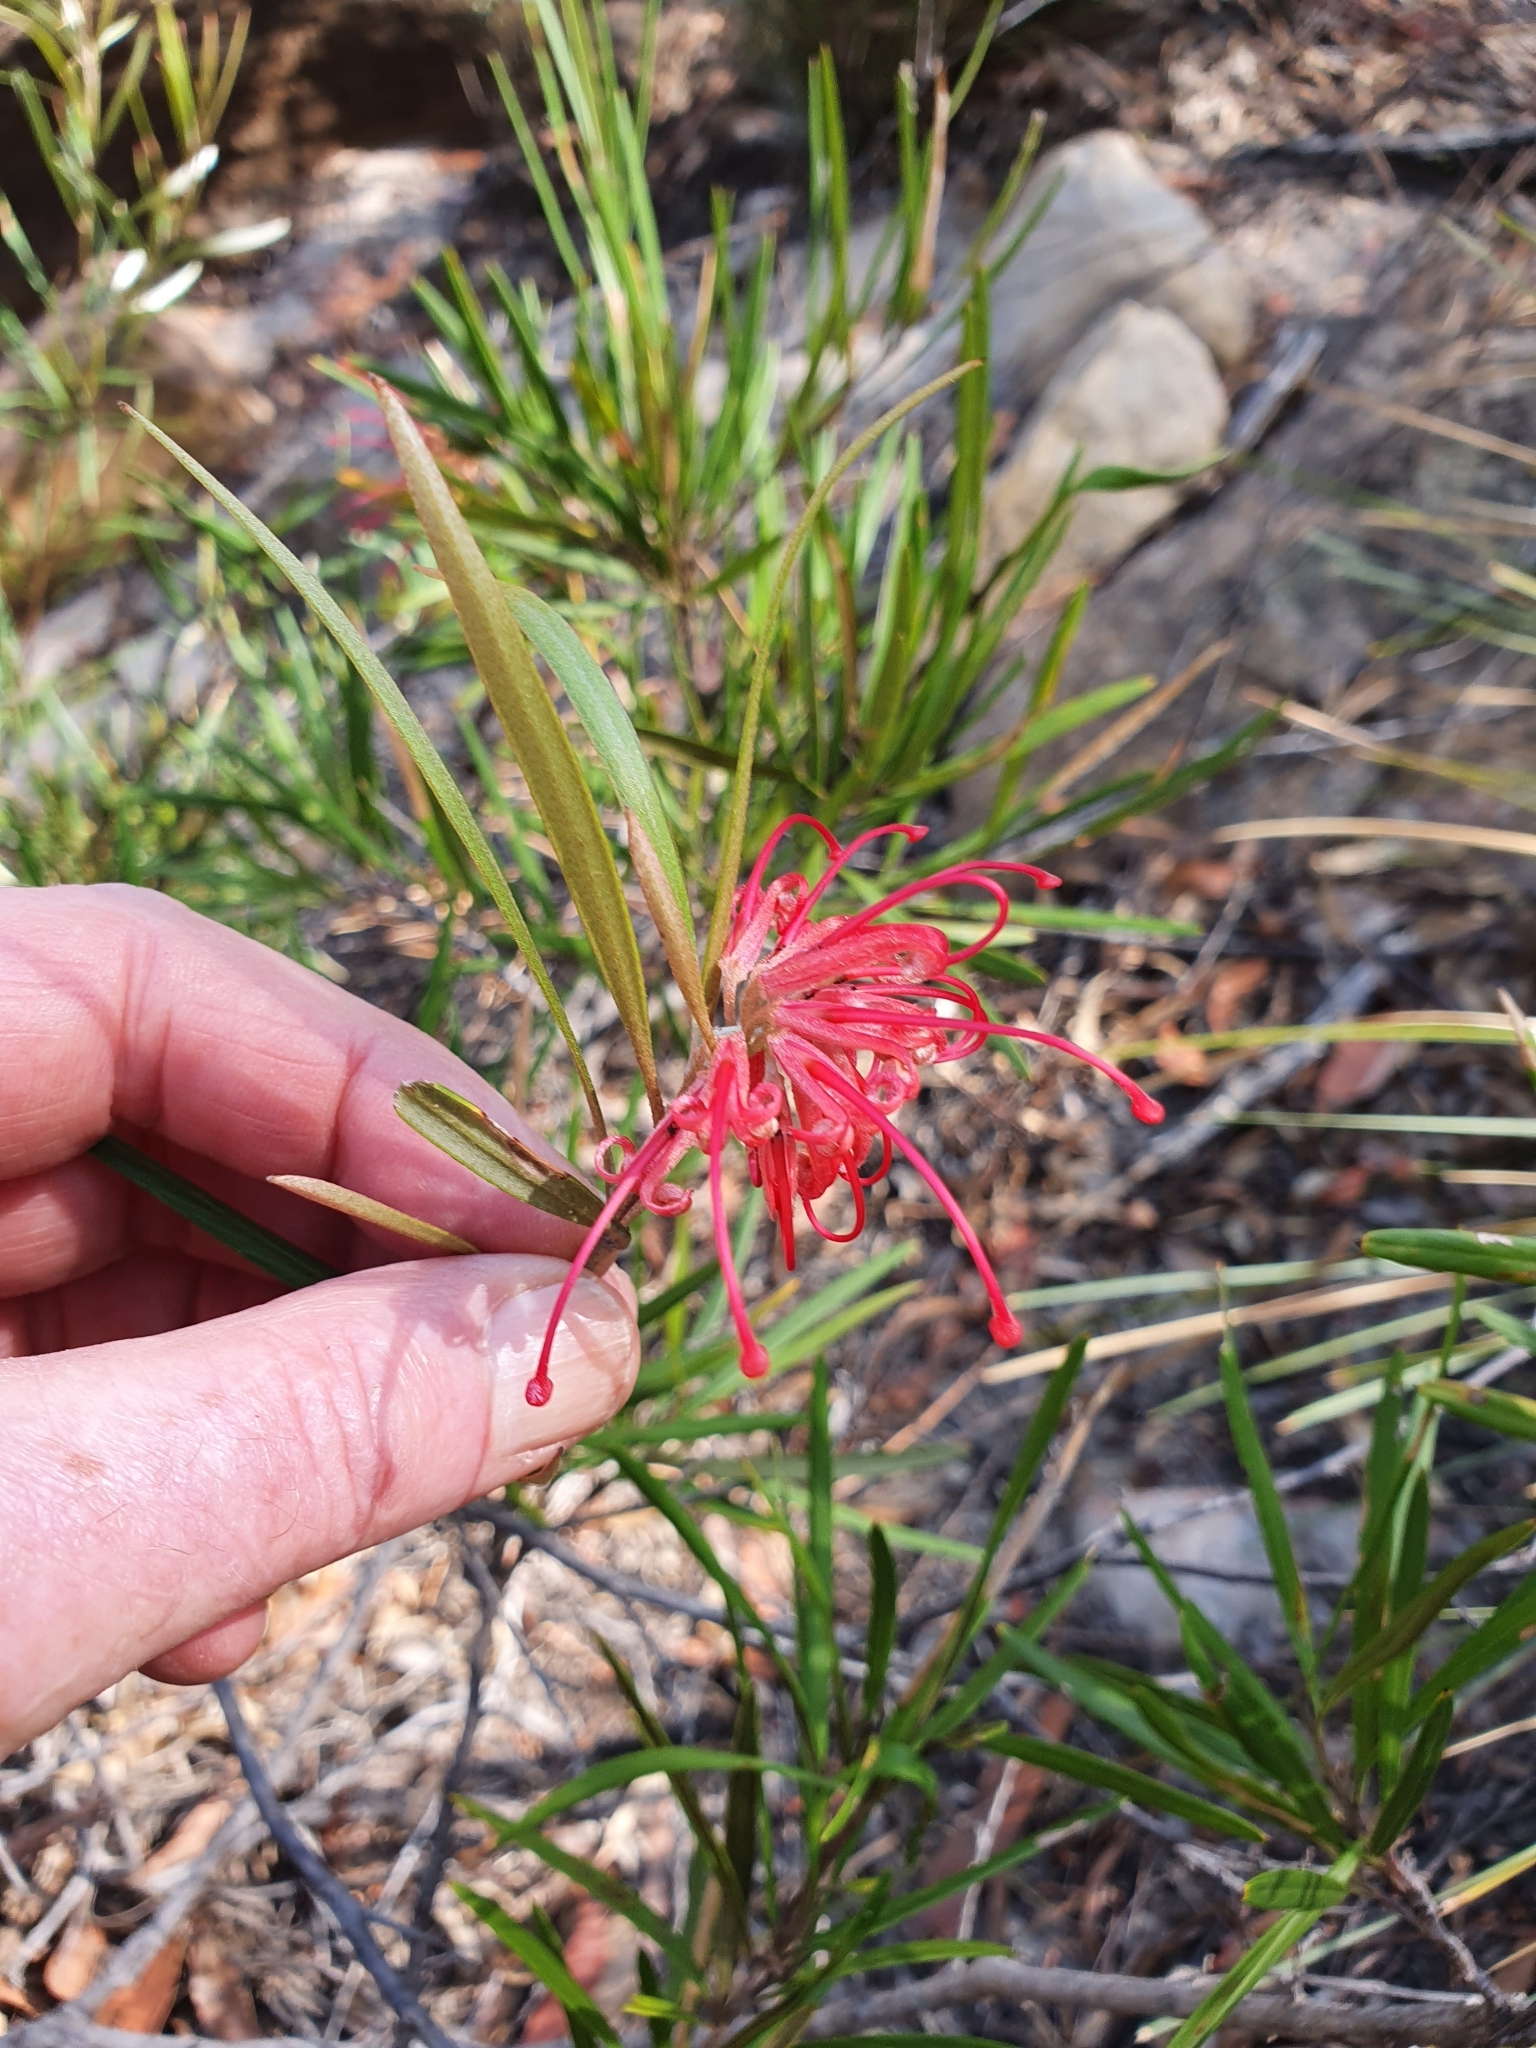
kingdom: Plantae
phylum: Tracheophyta
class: Magnoliopsida
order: Proteales
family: Proteaceae
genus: Grevillea
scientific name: Grevillea oleoides
